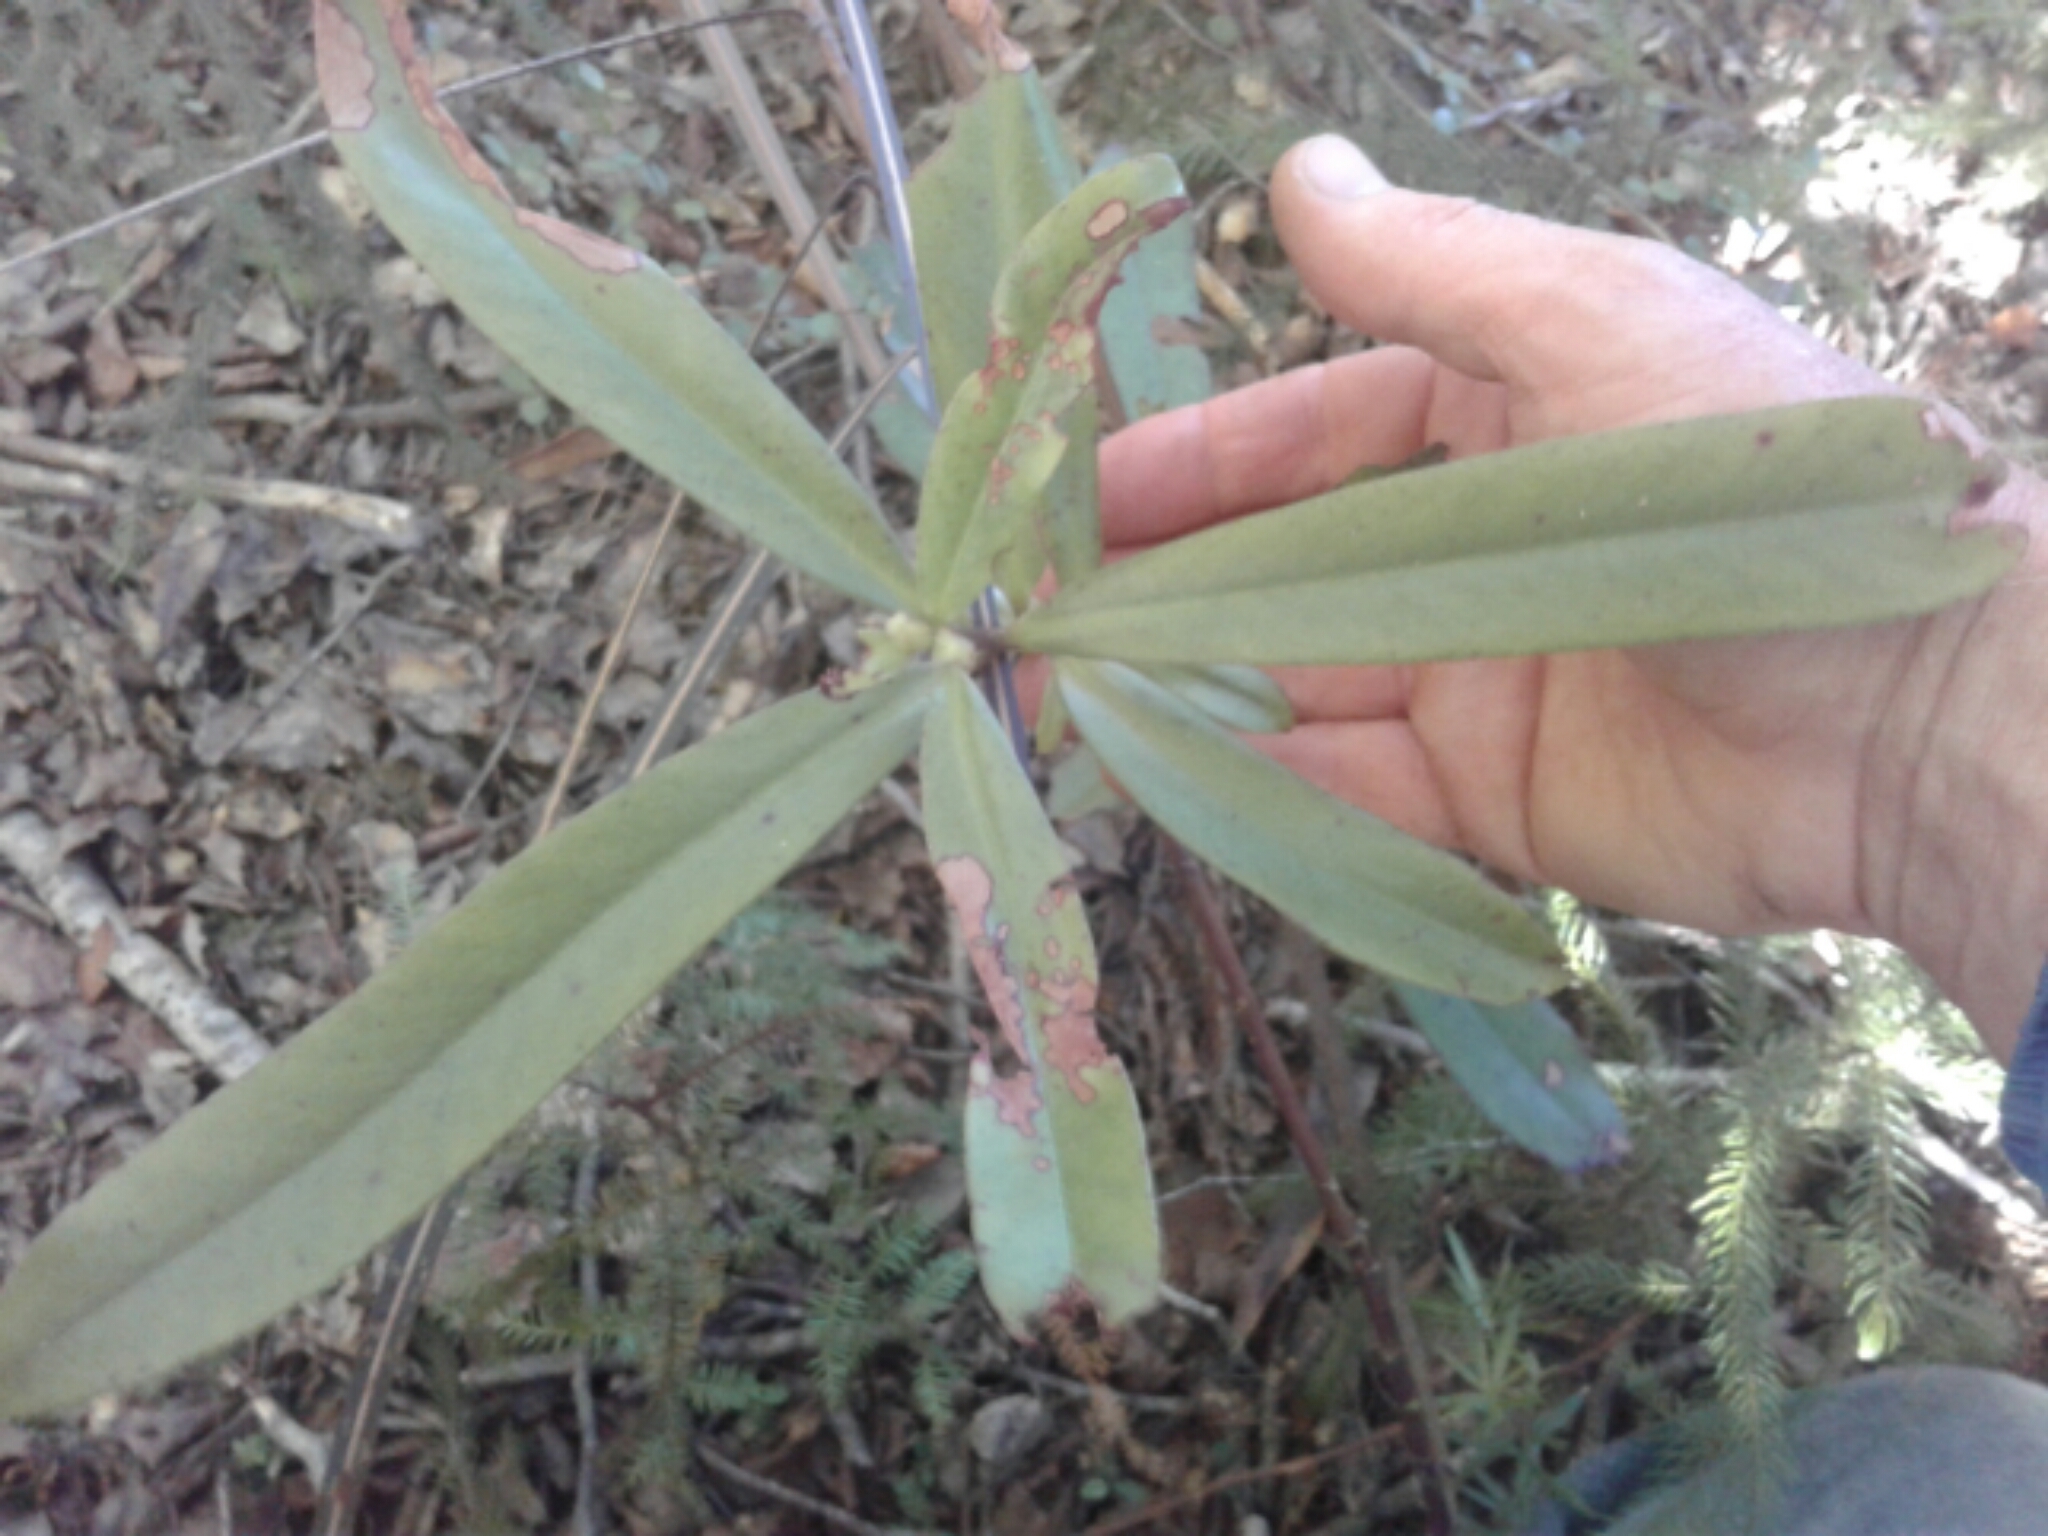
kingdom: Plantae
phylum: Tracheophyta
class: Magnoliopsida
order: Ericales
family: Primulaceae
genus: Myrsine
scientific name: Myrsine salicina
